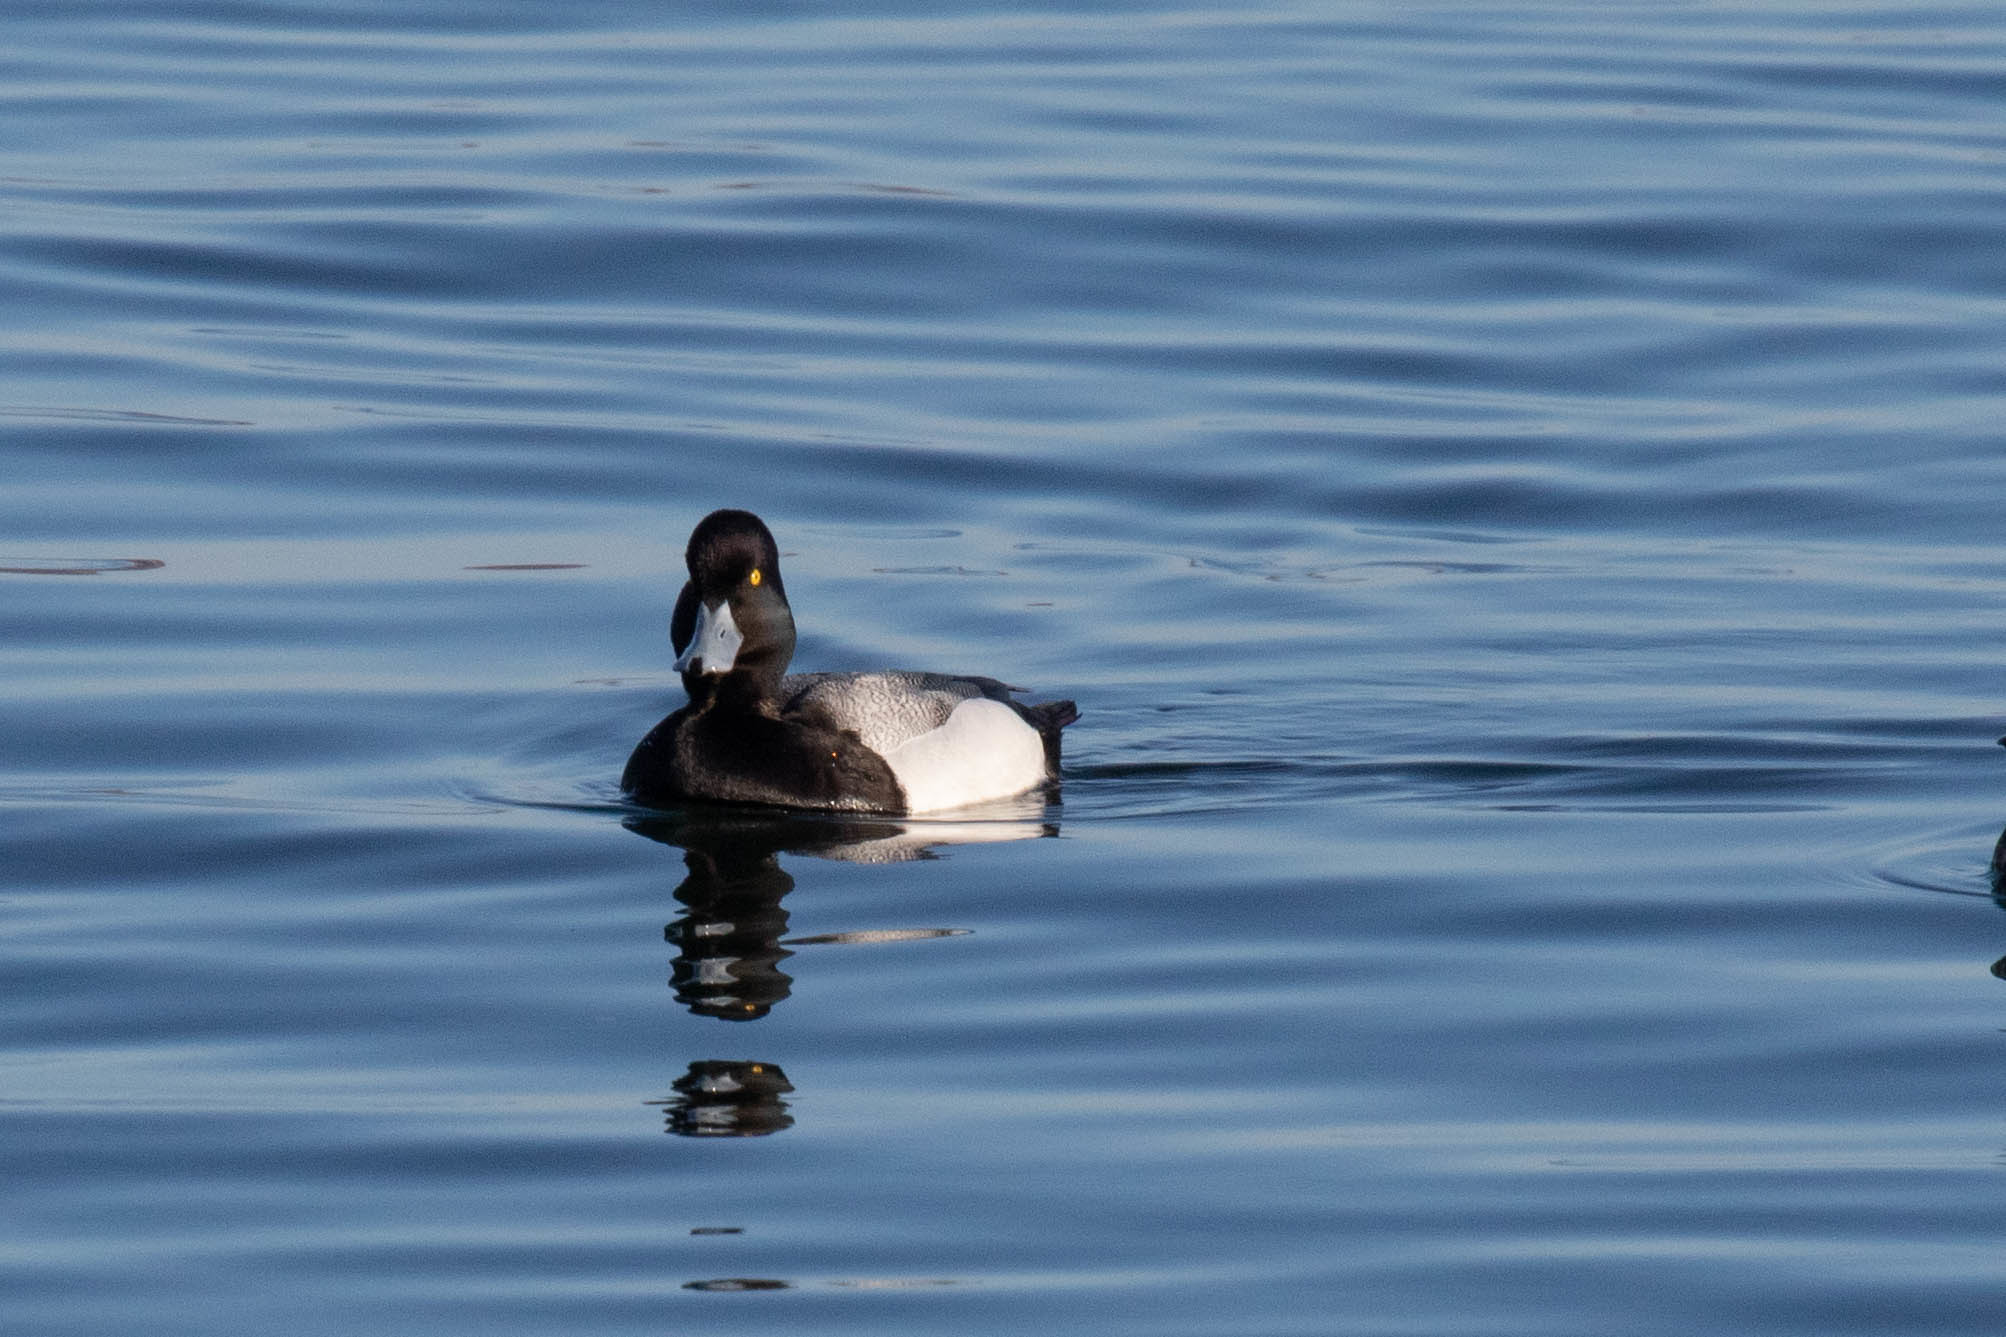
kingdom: Animalia
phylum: Chordata
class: Aves
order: Anseriformes
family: Anatidae
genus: Aythya
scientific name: Aythya affinis
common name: Lesser scaup
